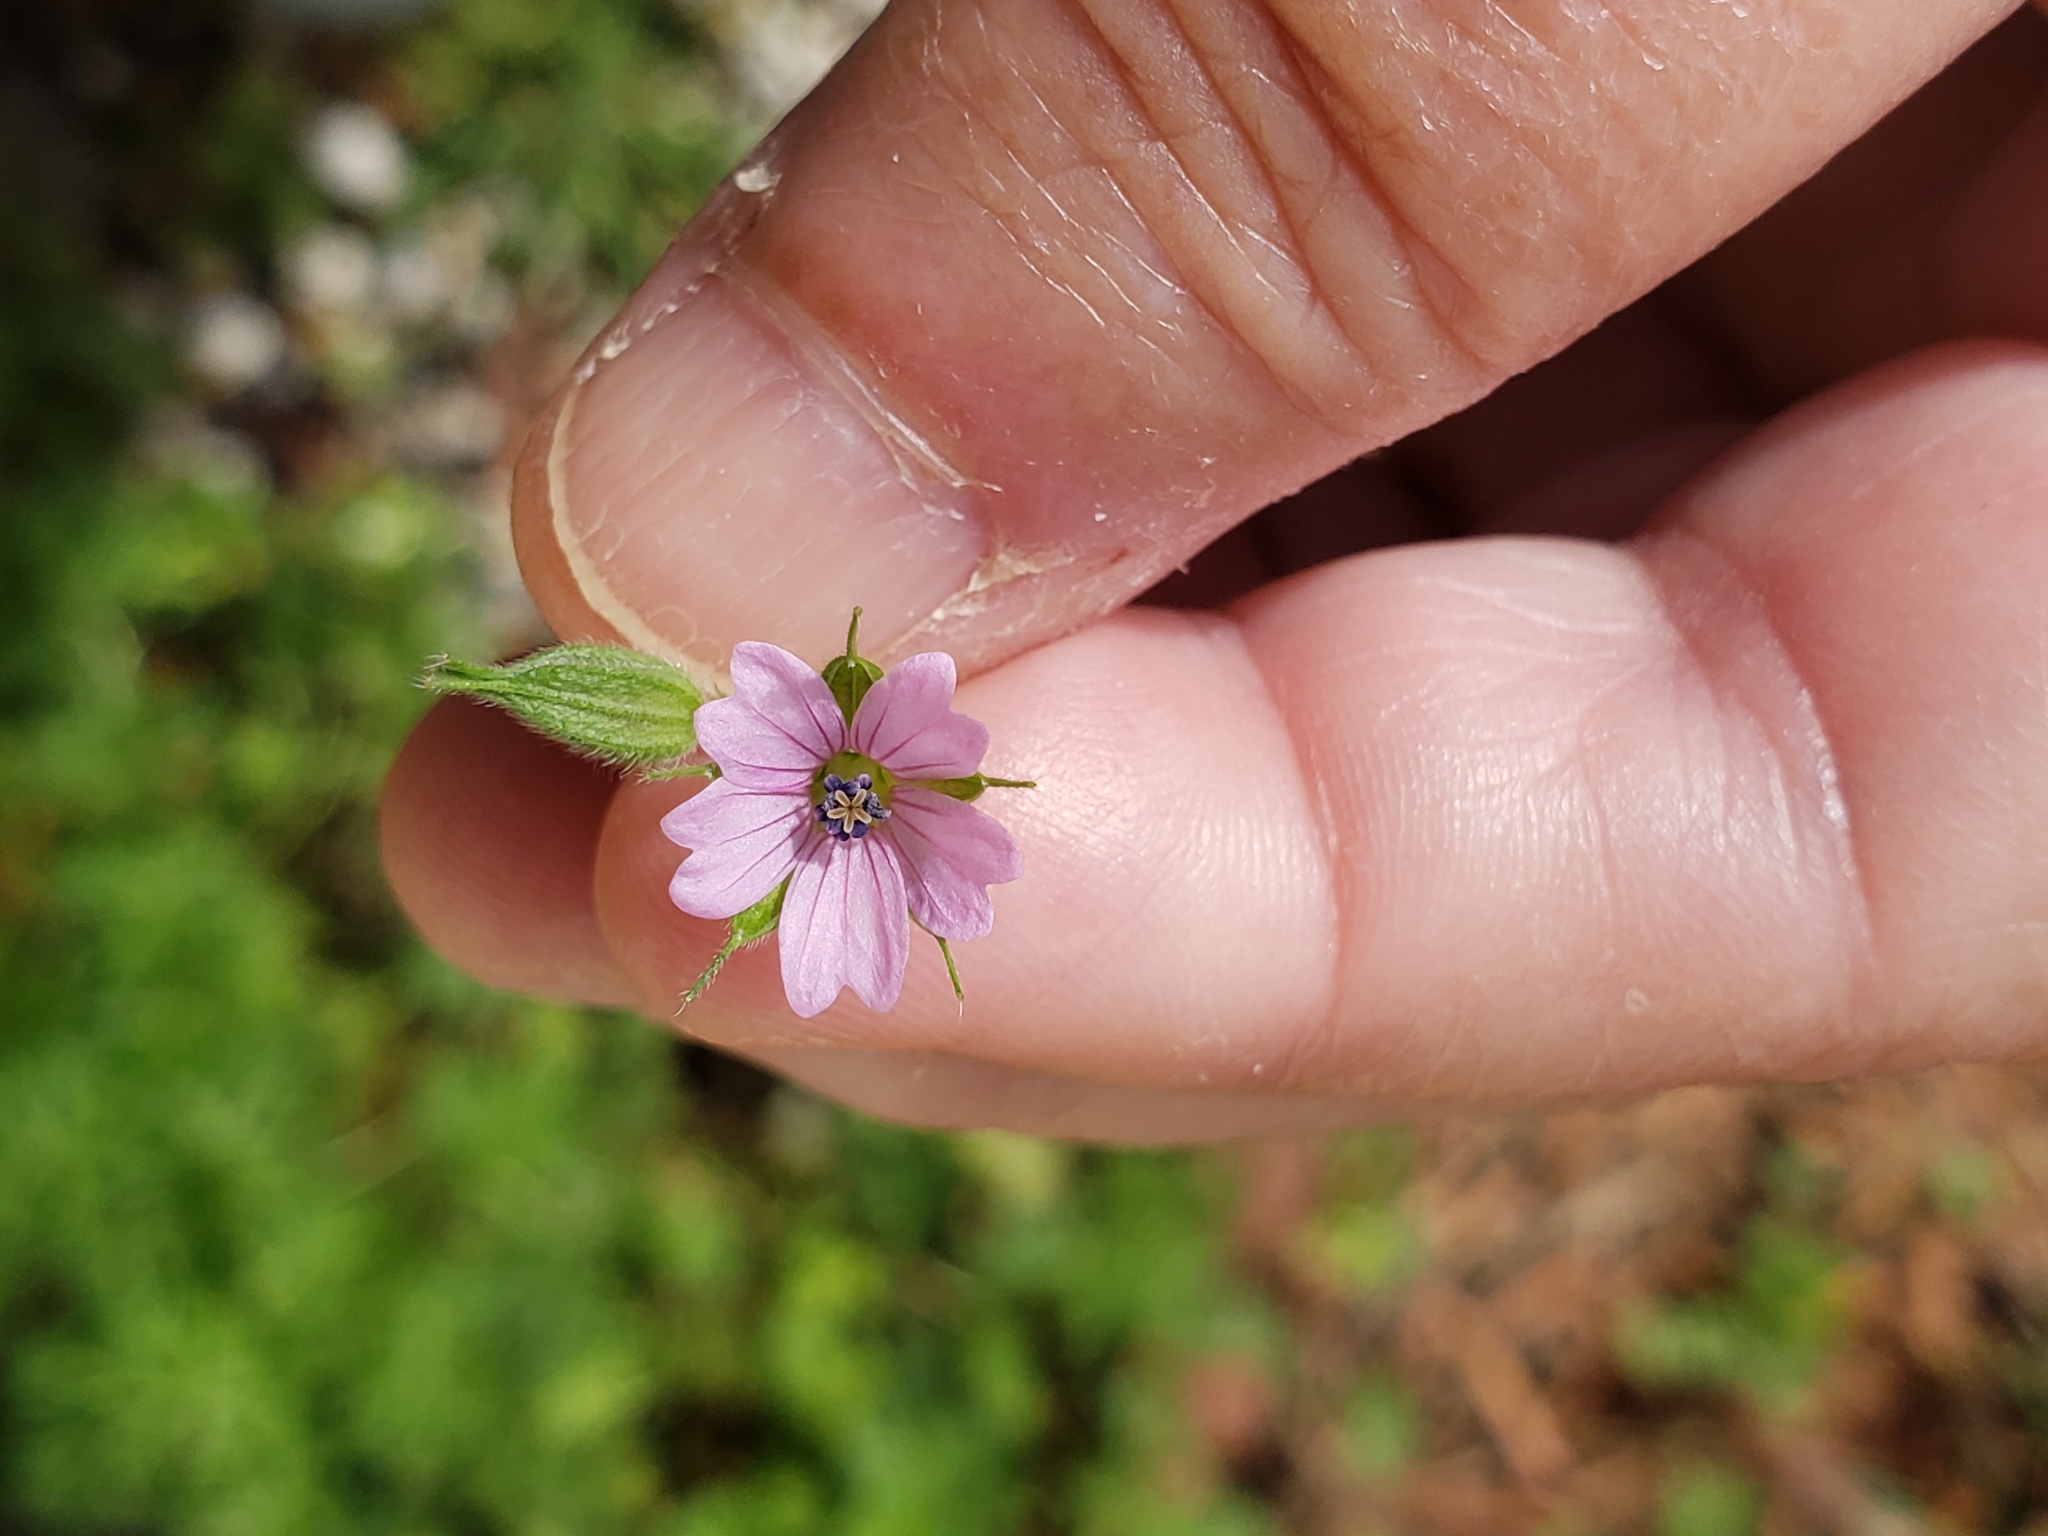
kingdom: Plantae
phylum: Tracheophyta
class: Magnoliopsida
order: Geraniales
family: Geraniaceae
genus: Geranium
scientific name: Geranium dissectum
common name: Cut-leaved crane's-bill
